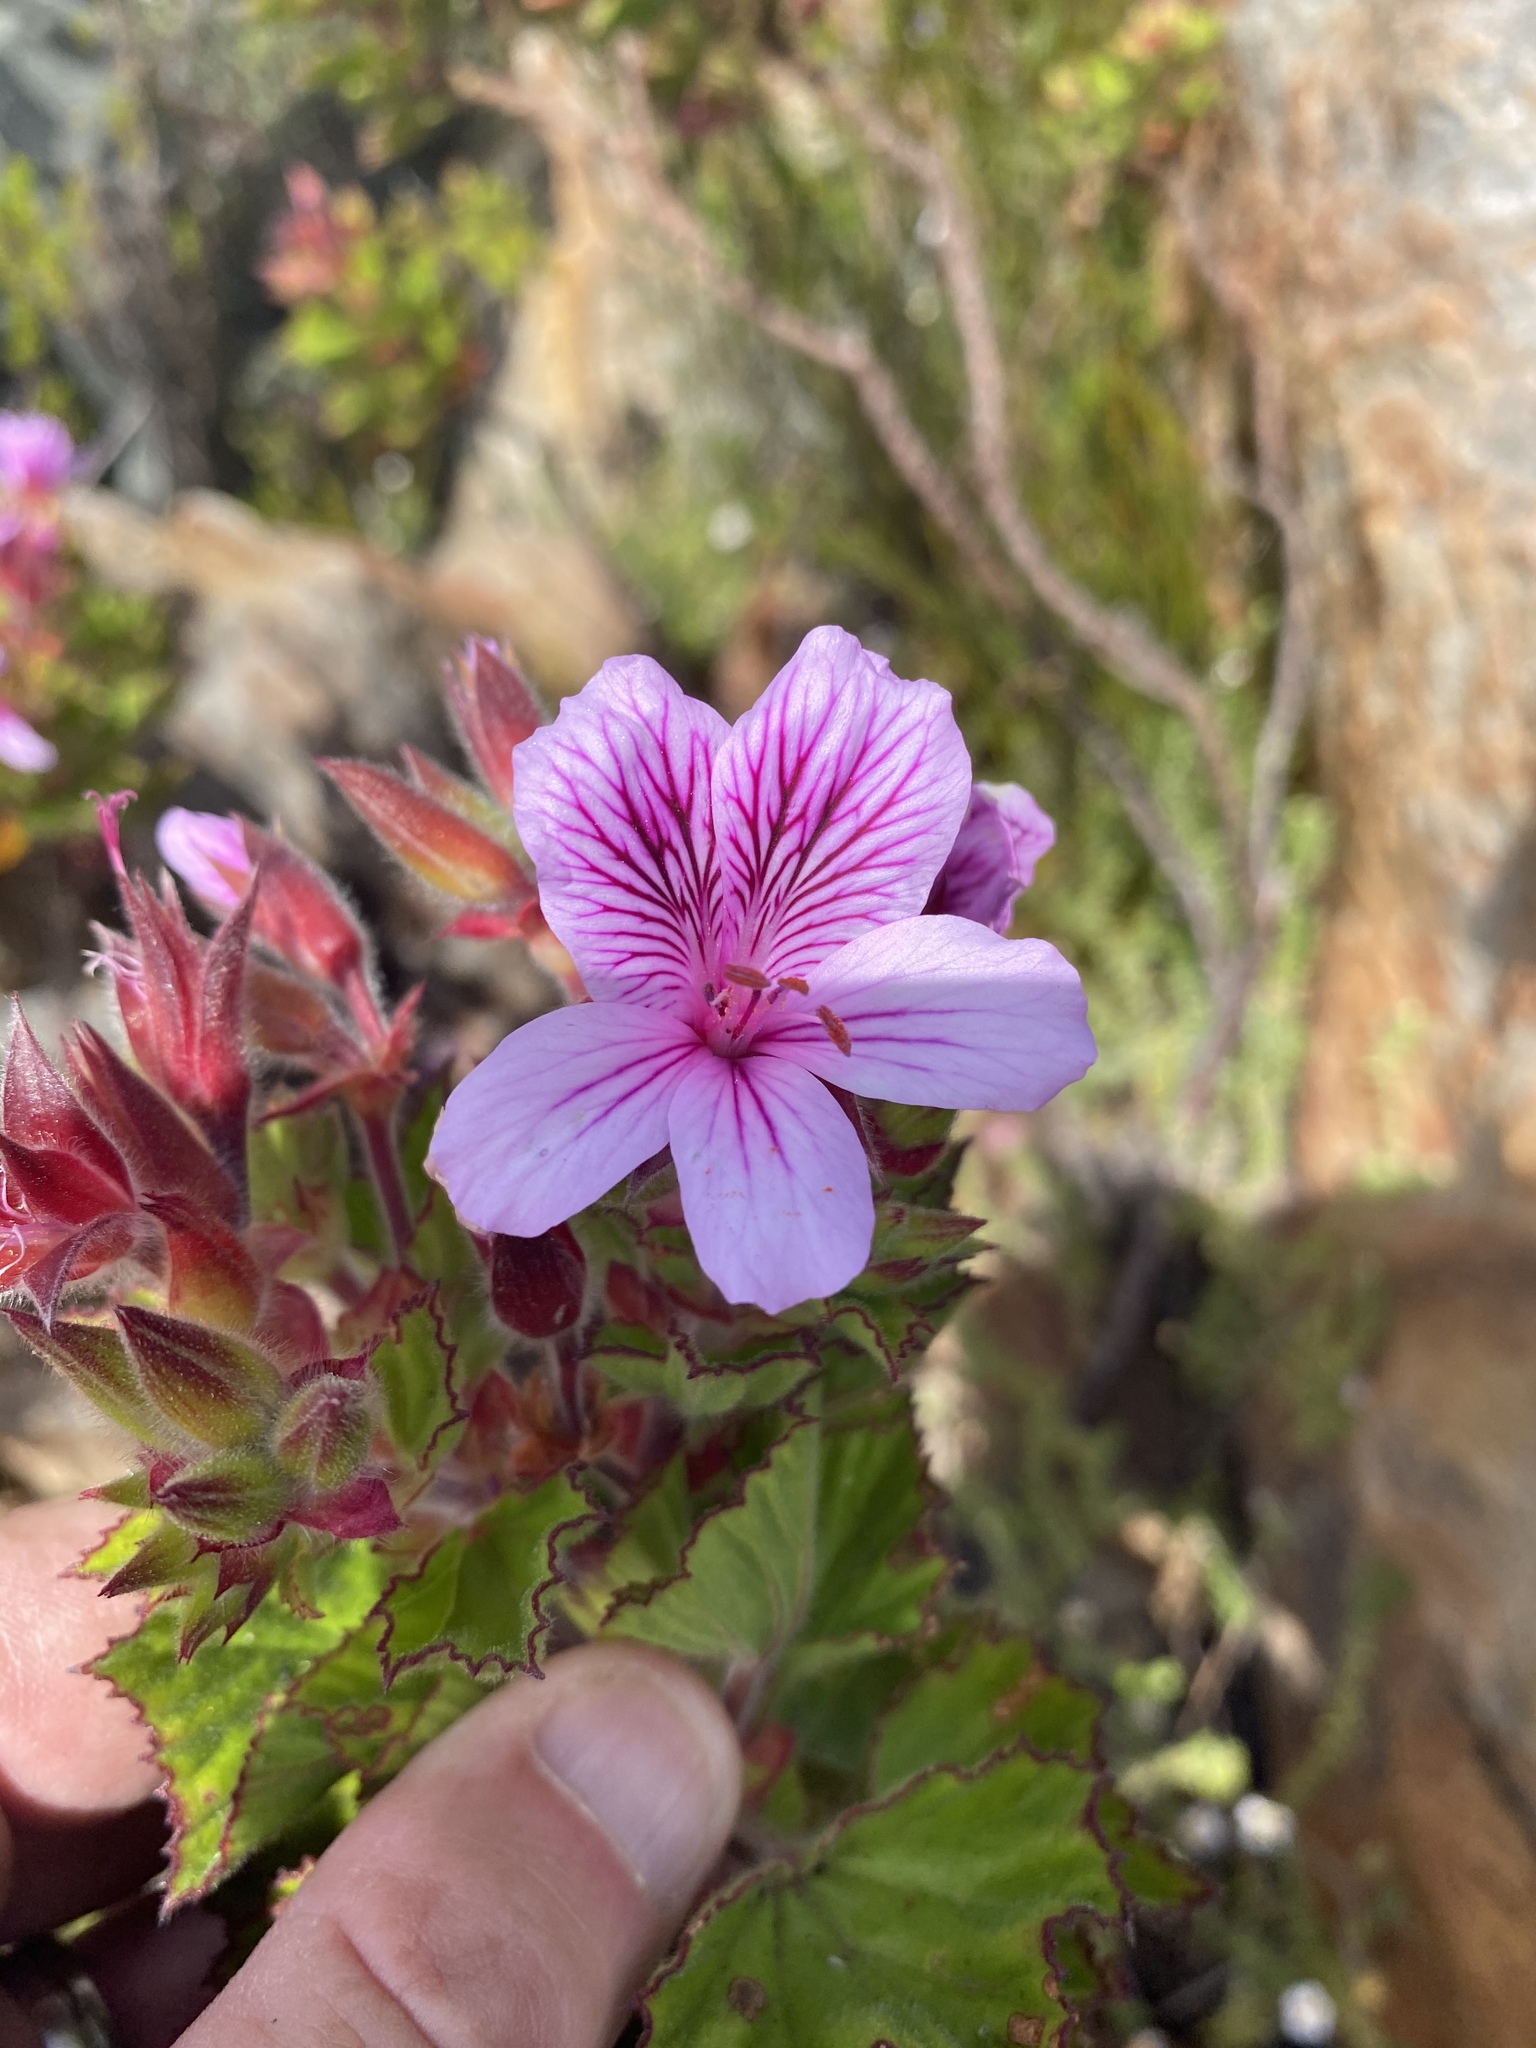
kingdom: Plantae
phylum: Tracheophyta
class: Magnoliopsida
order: Geraniales
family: Geraniaceae
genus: Pelargonium
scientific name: Pelargonium cucullatum
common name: Tree pelargonium
